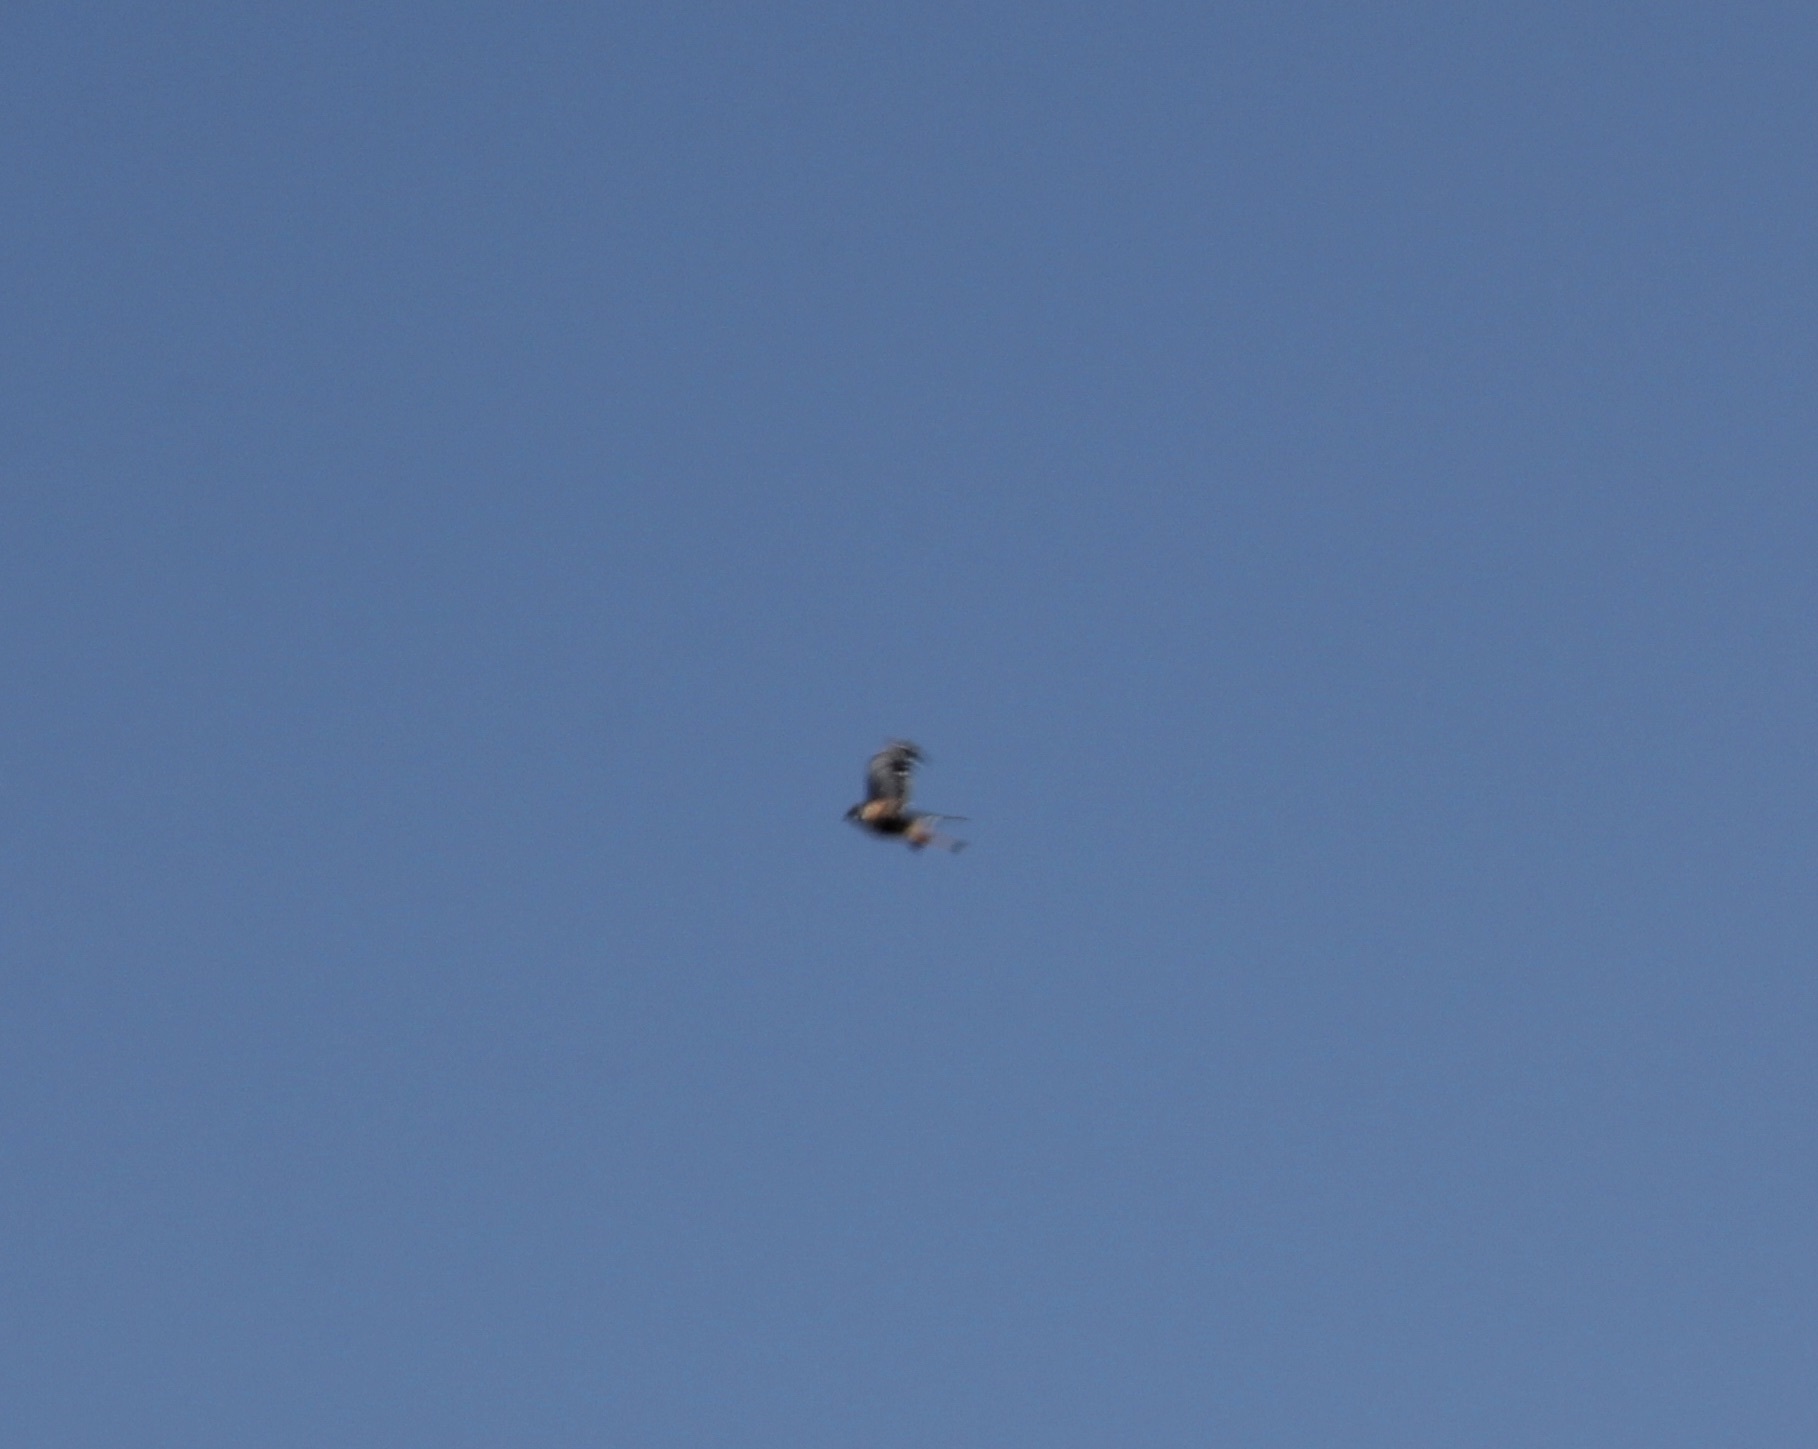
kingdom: Animalia
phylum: Chordata
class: Aves
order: Falconiformes
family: Falconidae
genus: Falco
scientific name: Falco sparverius
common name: American kestrel
